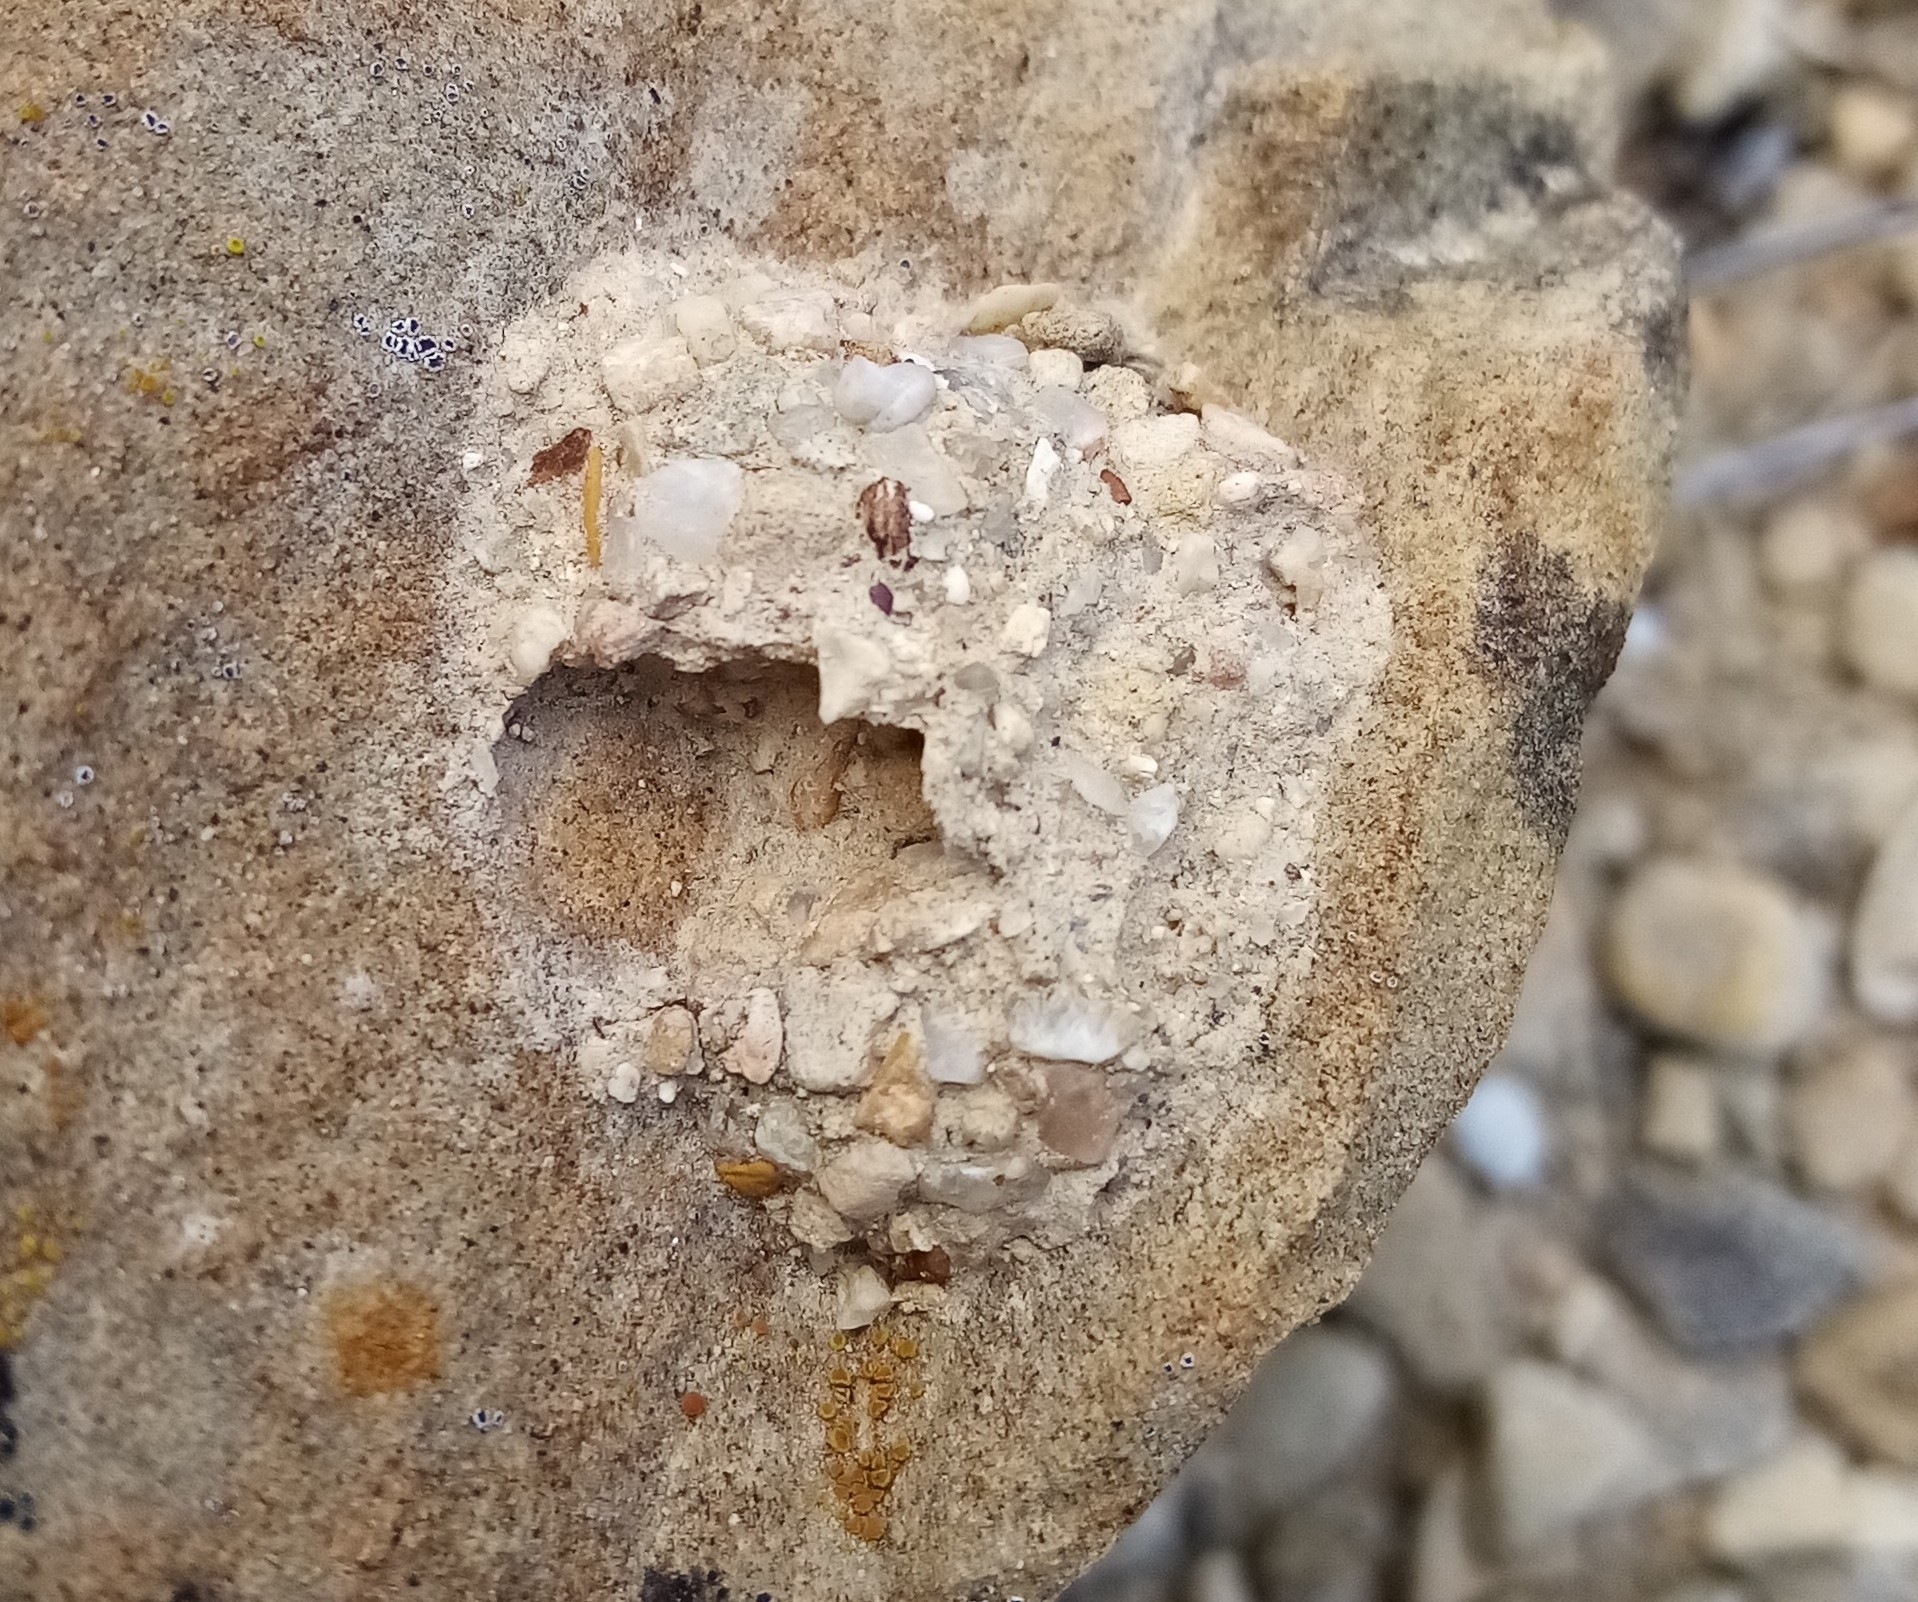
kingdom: Animalia
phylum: Arthropoda
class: Insecta
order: Hymenoptera
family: Eumenidae
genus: Katamenes
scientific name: Katamenes
